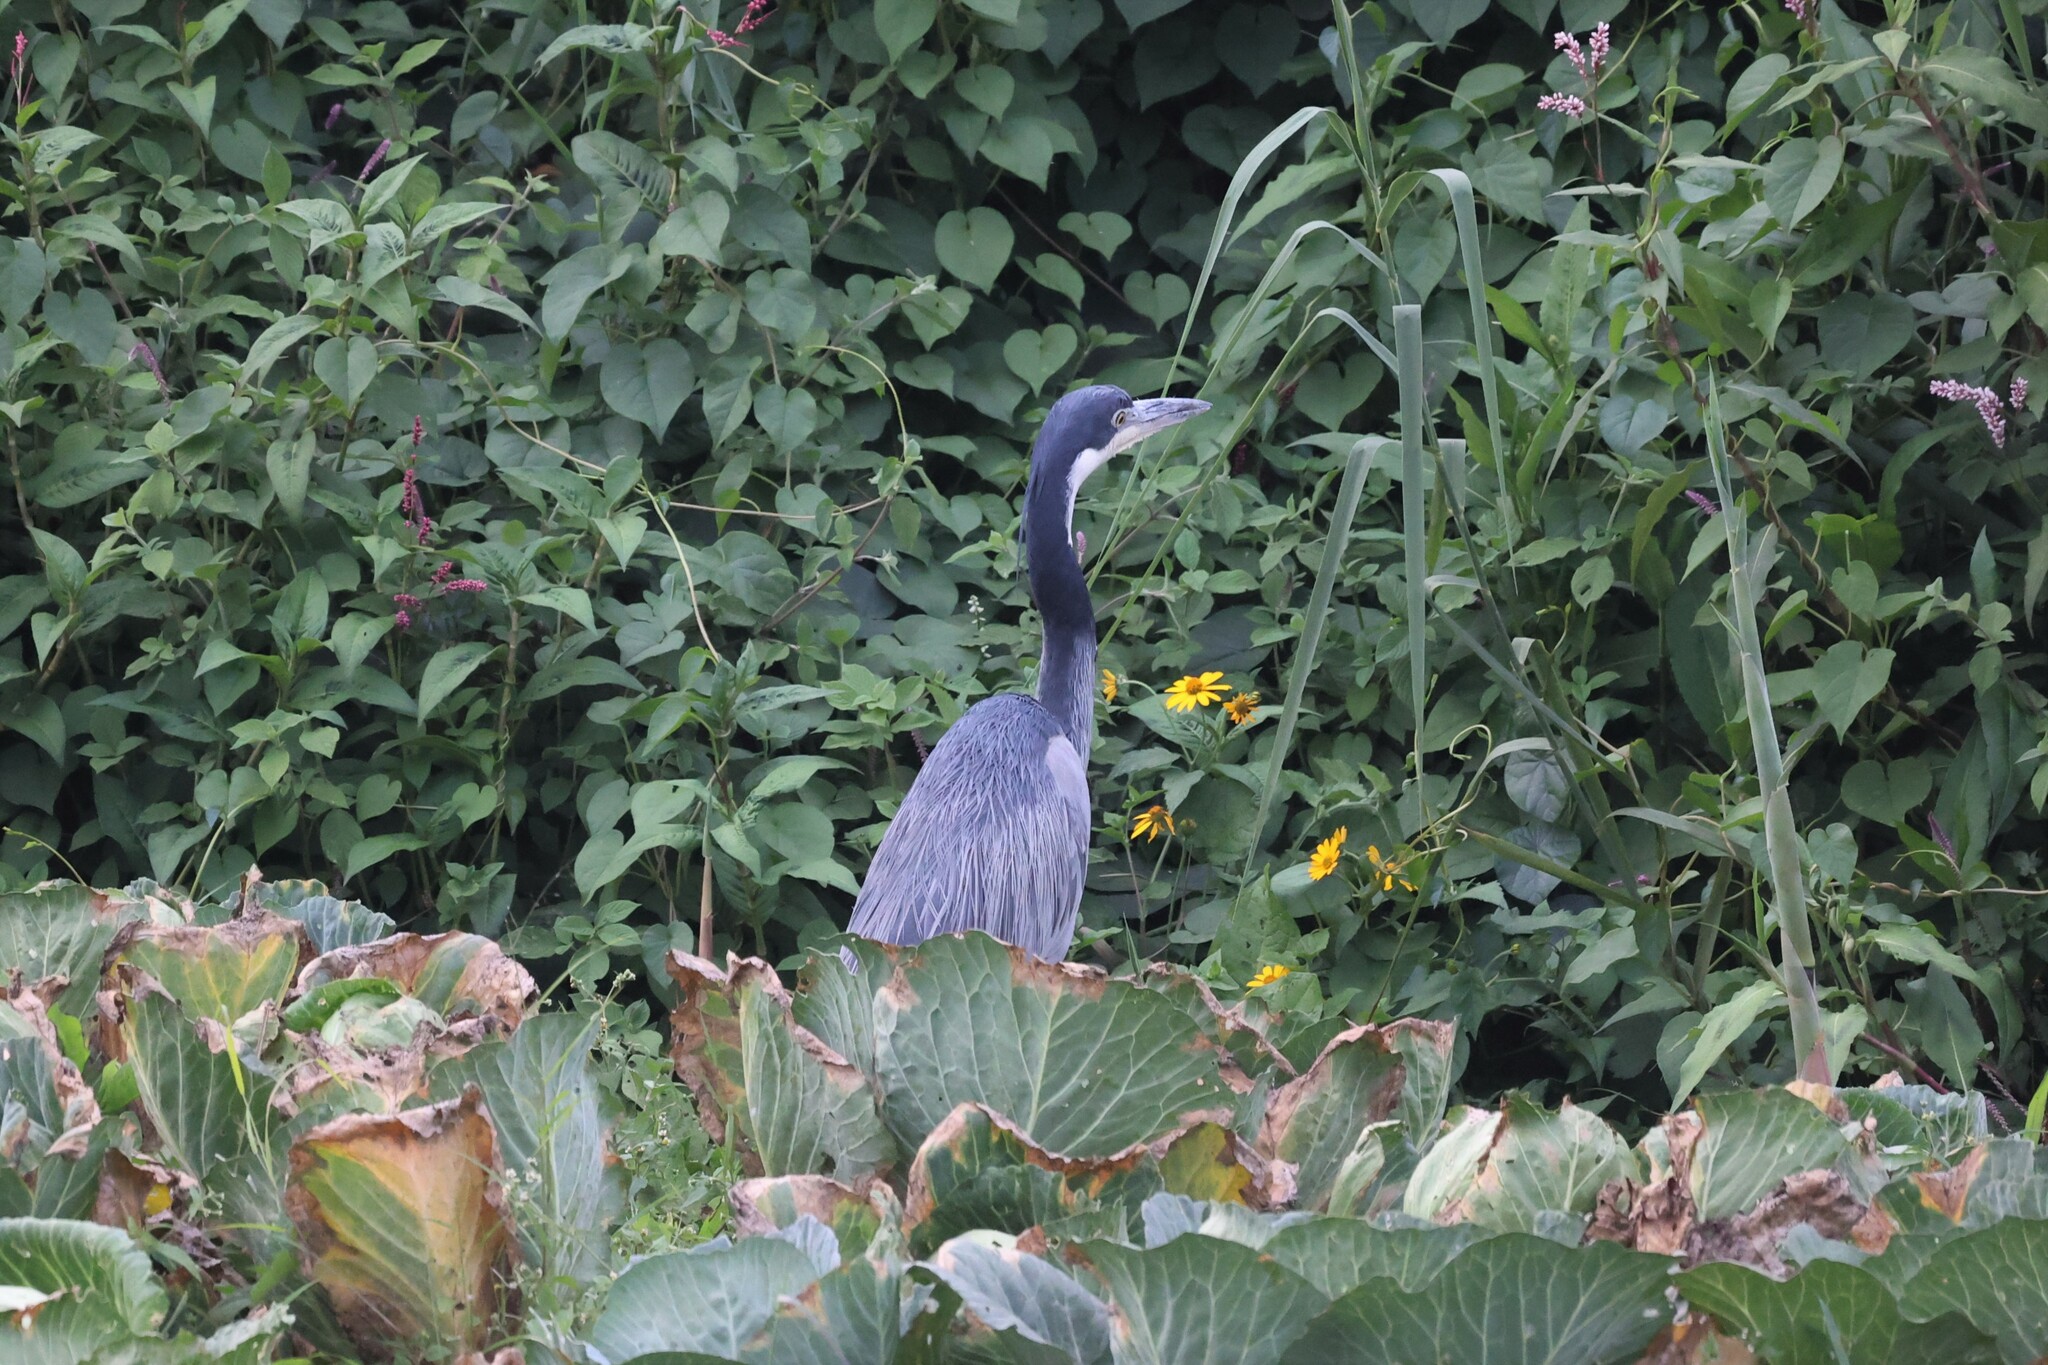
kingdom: Animalia
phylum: Chordata
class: Aves
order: Pelecaniformes
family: Ardeidae
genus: Ardea
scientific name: Ardea melanocephala
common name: Black-headed heron
